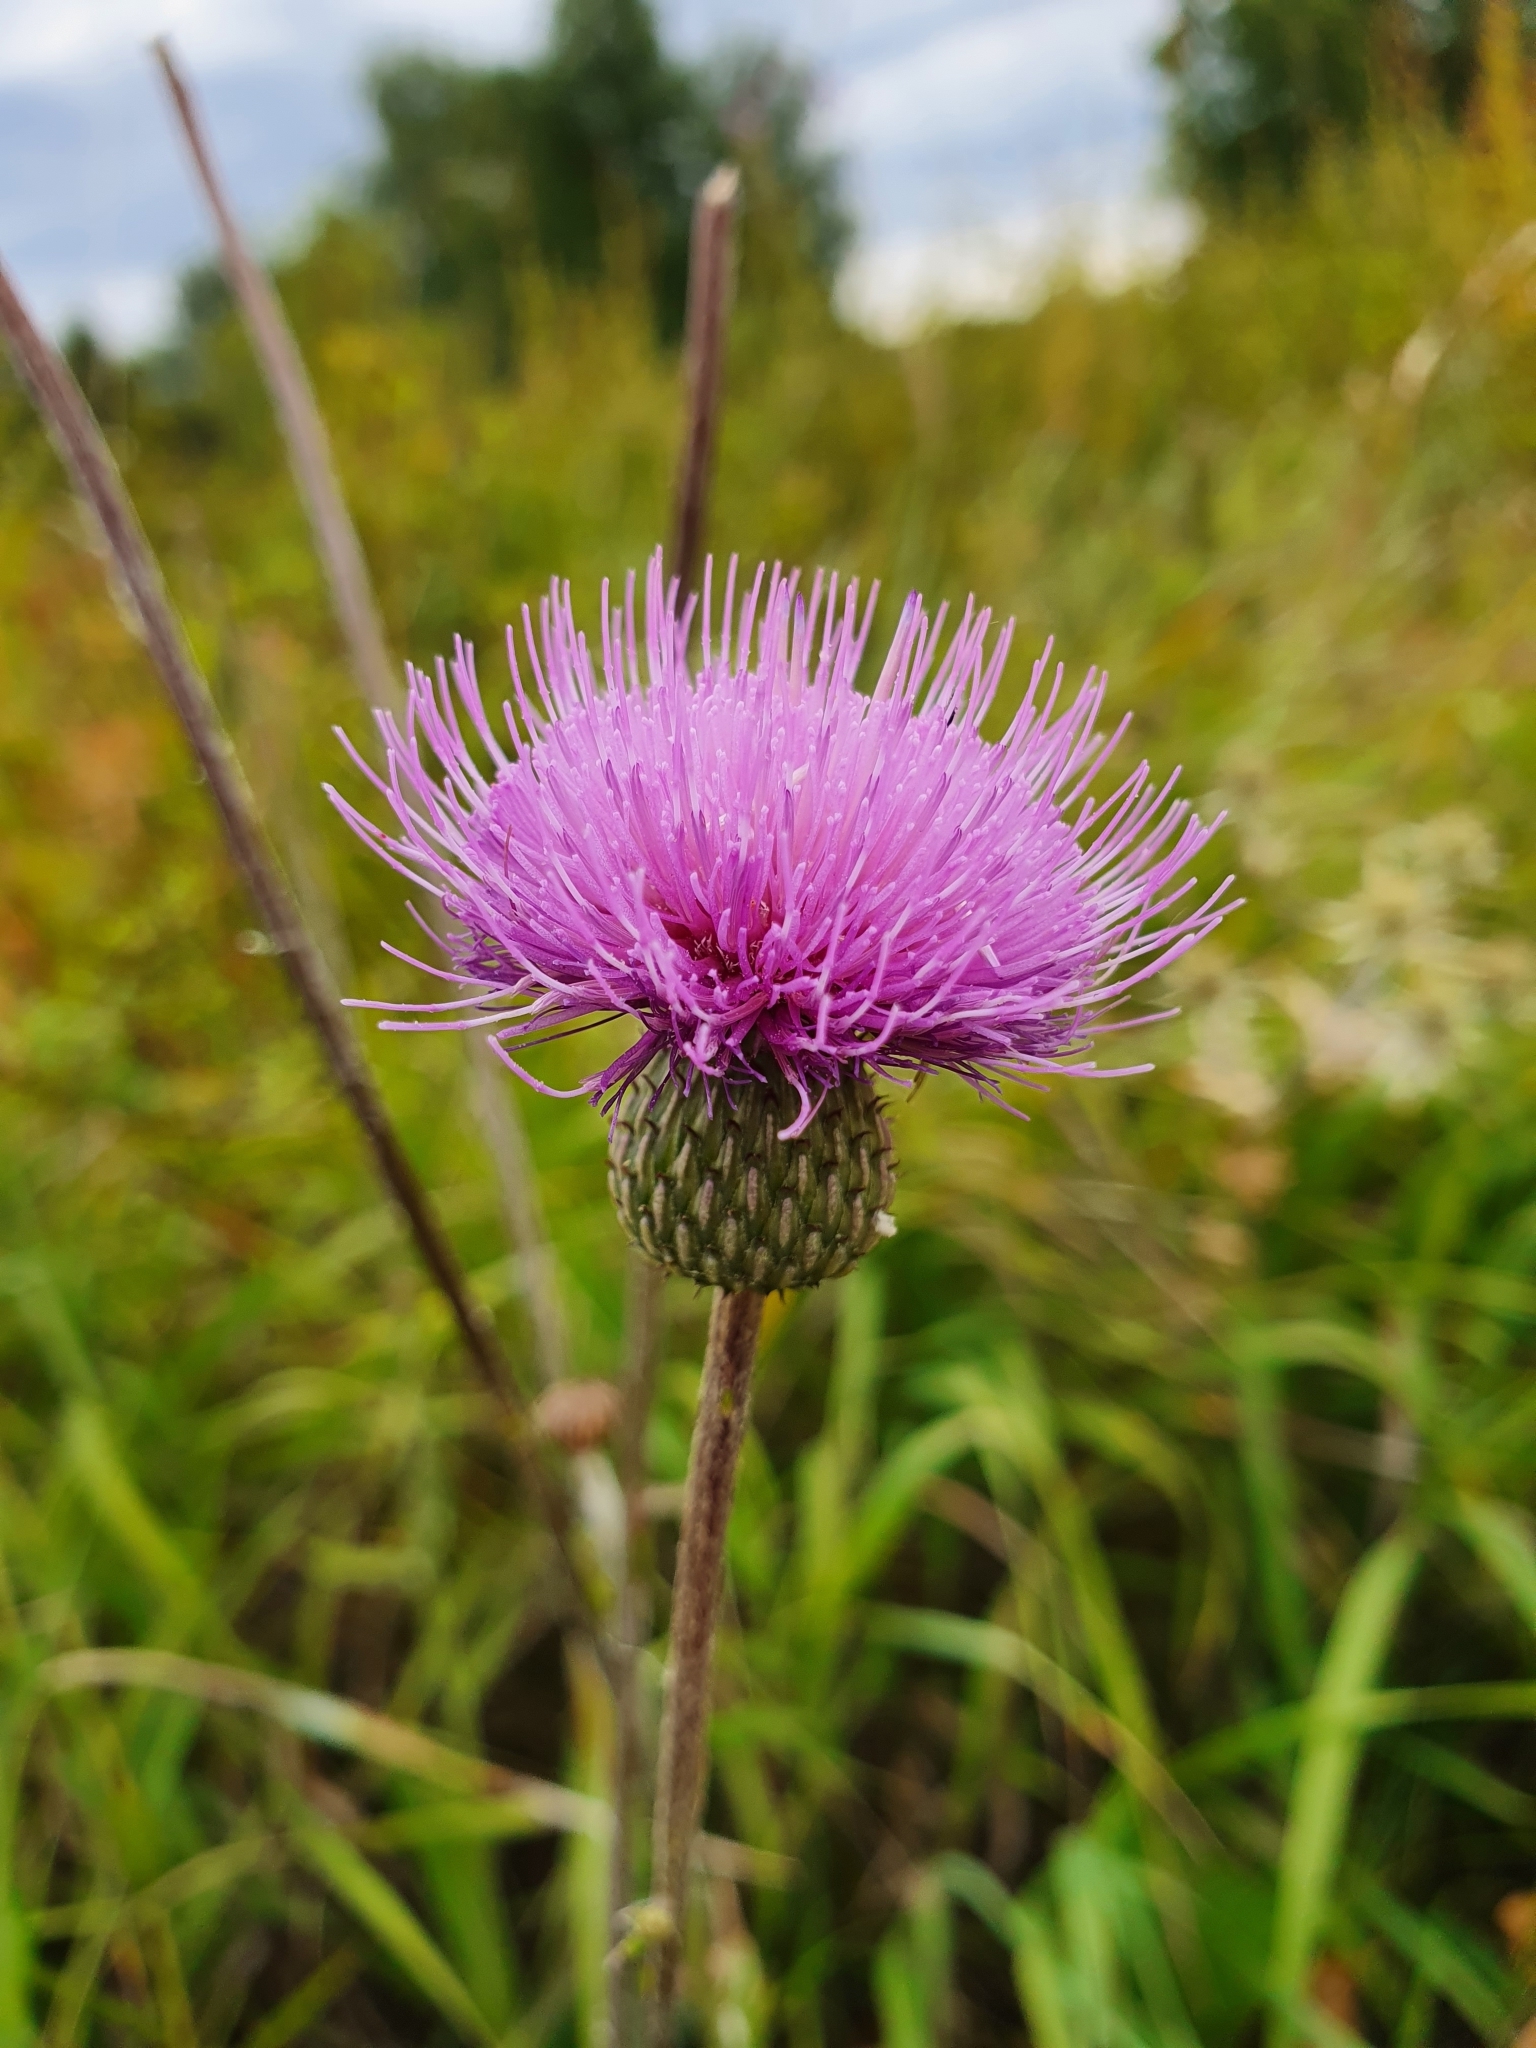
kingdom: Plantae
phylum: Tracheophyta
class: Magnoliopsida
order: Asterales
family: Asteraceae
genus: Cirsium
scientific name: Cirsium canum
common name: Queen anne's thistle
